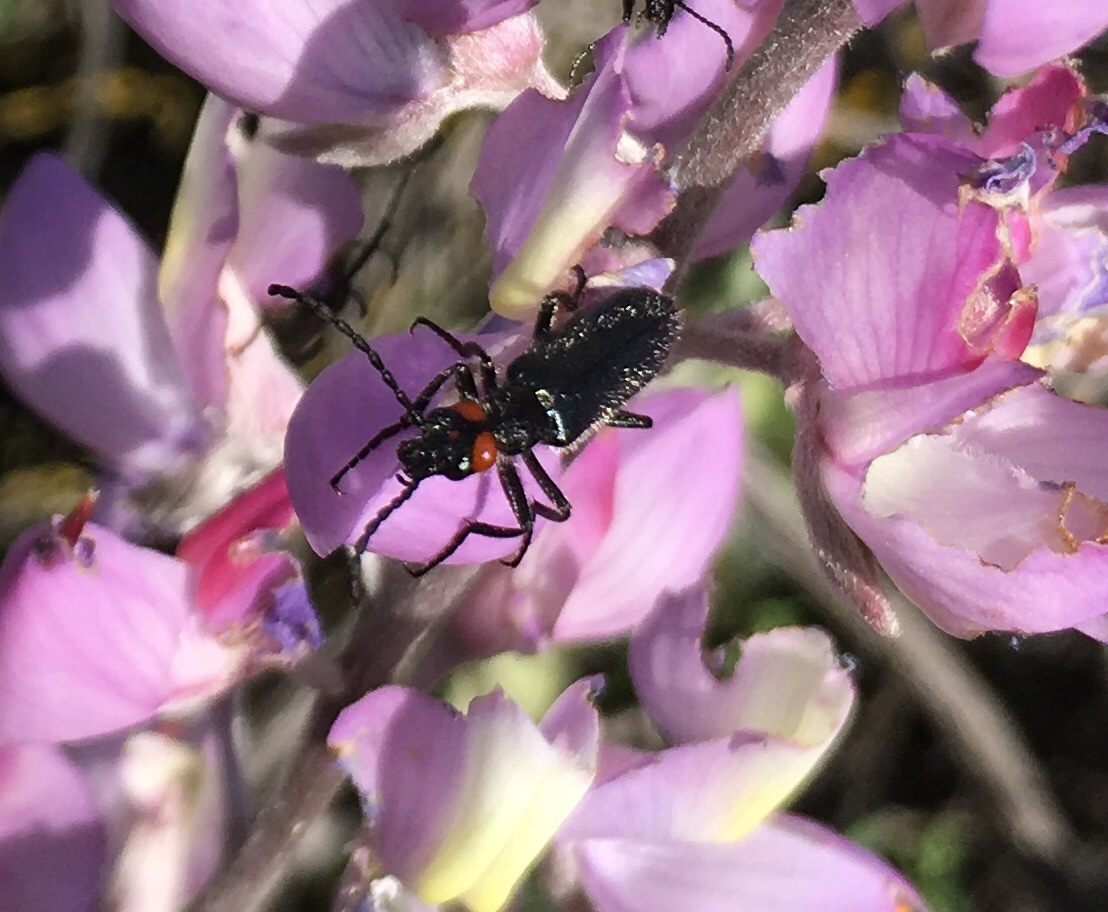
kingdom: Animalia
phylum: Arthropoda
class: Insecta
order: Coleoptera
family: Meloidae
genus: Lytta
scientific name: Lytta auriculata
